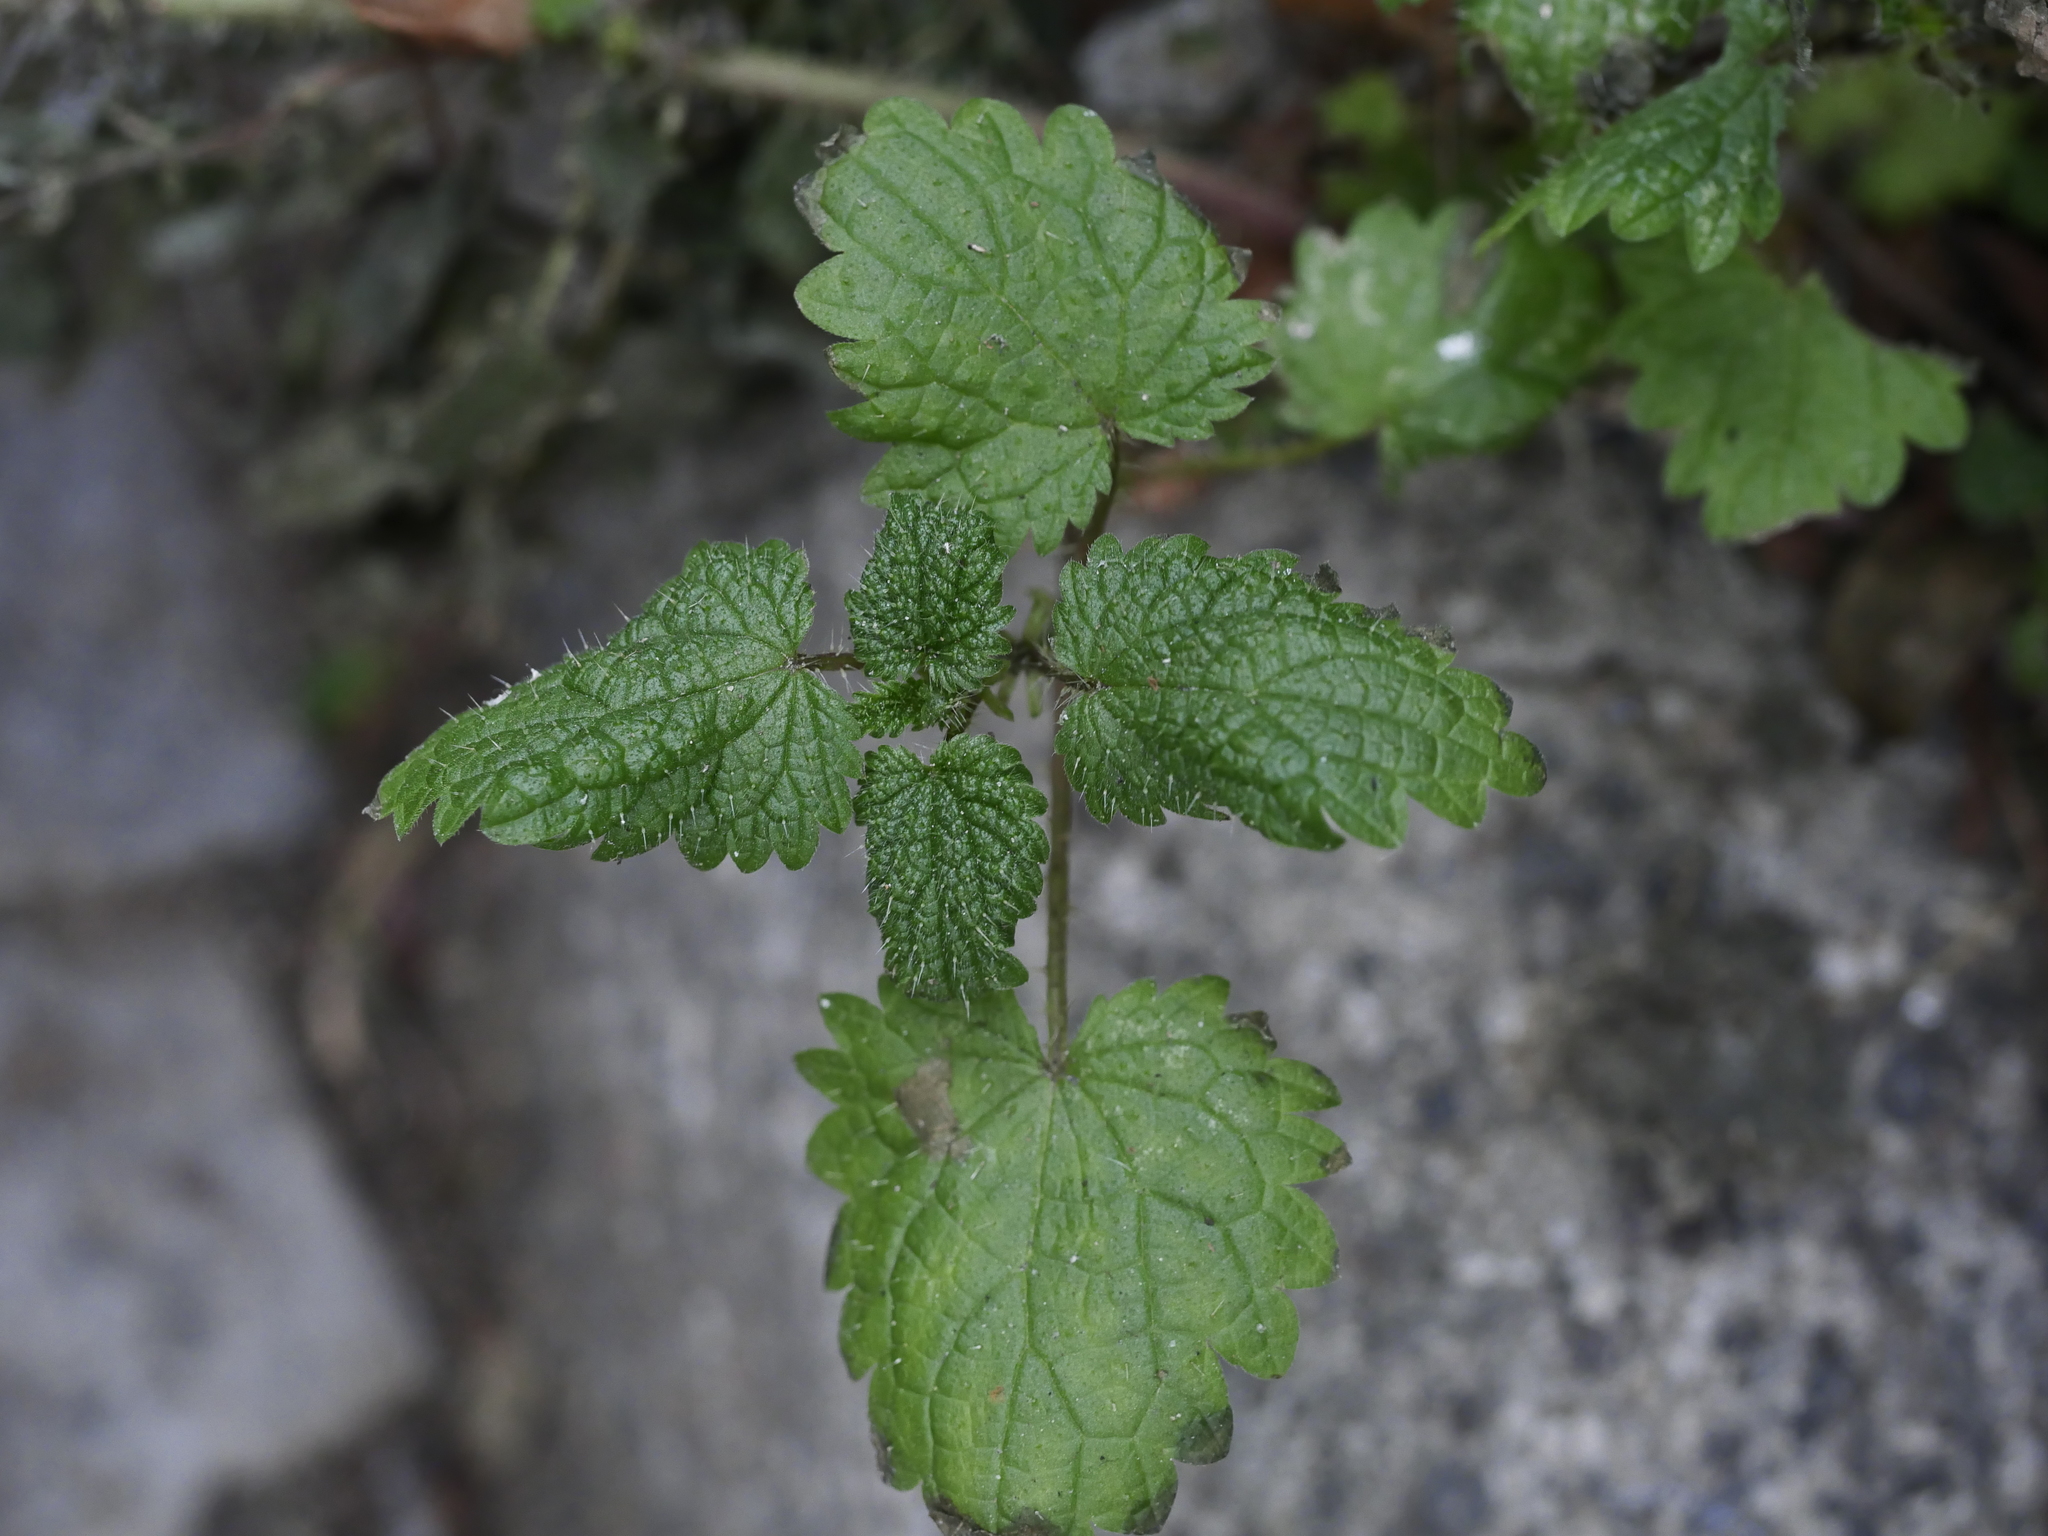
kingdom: Plantae
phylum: Tracheophyta
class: Magnoliopsida
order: Rosales
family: Urticaceae
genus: Urtica
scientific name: Urtica dioica
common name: Common nettle
